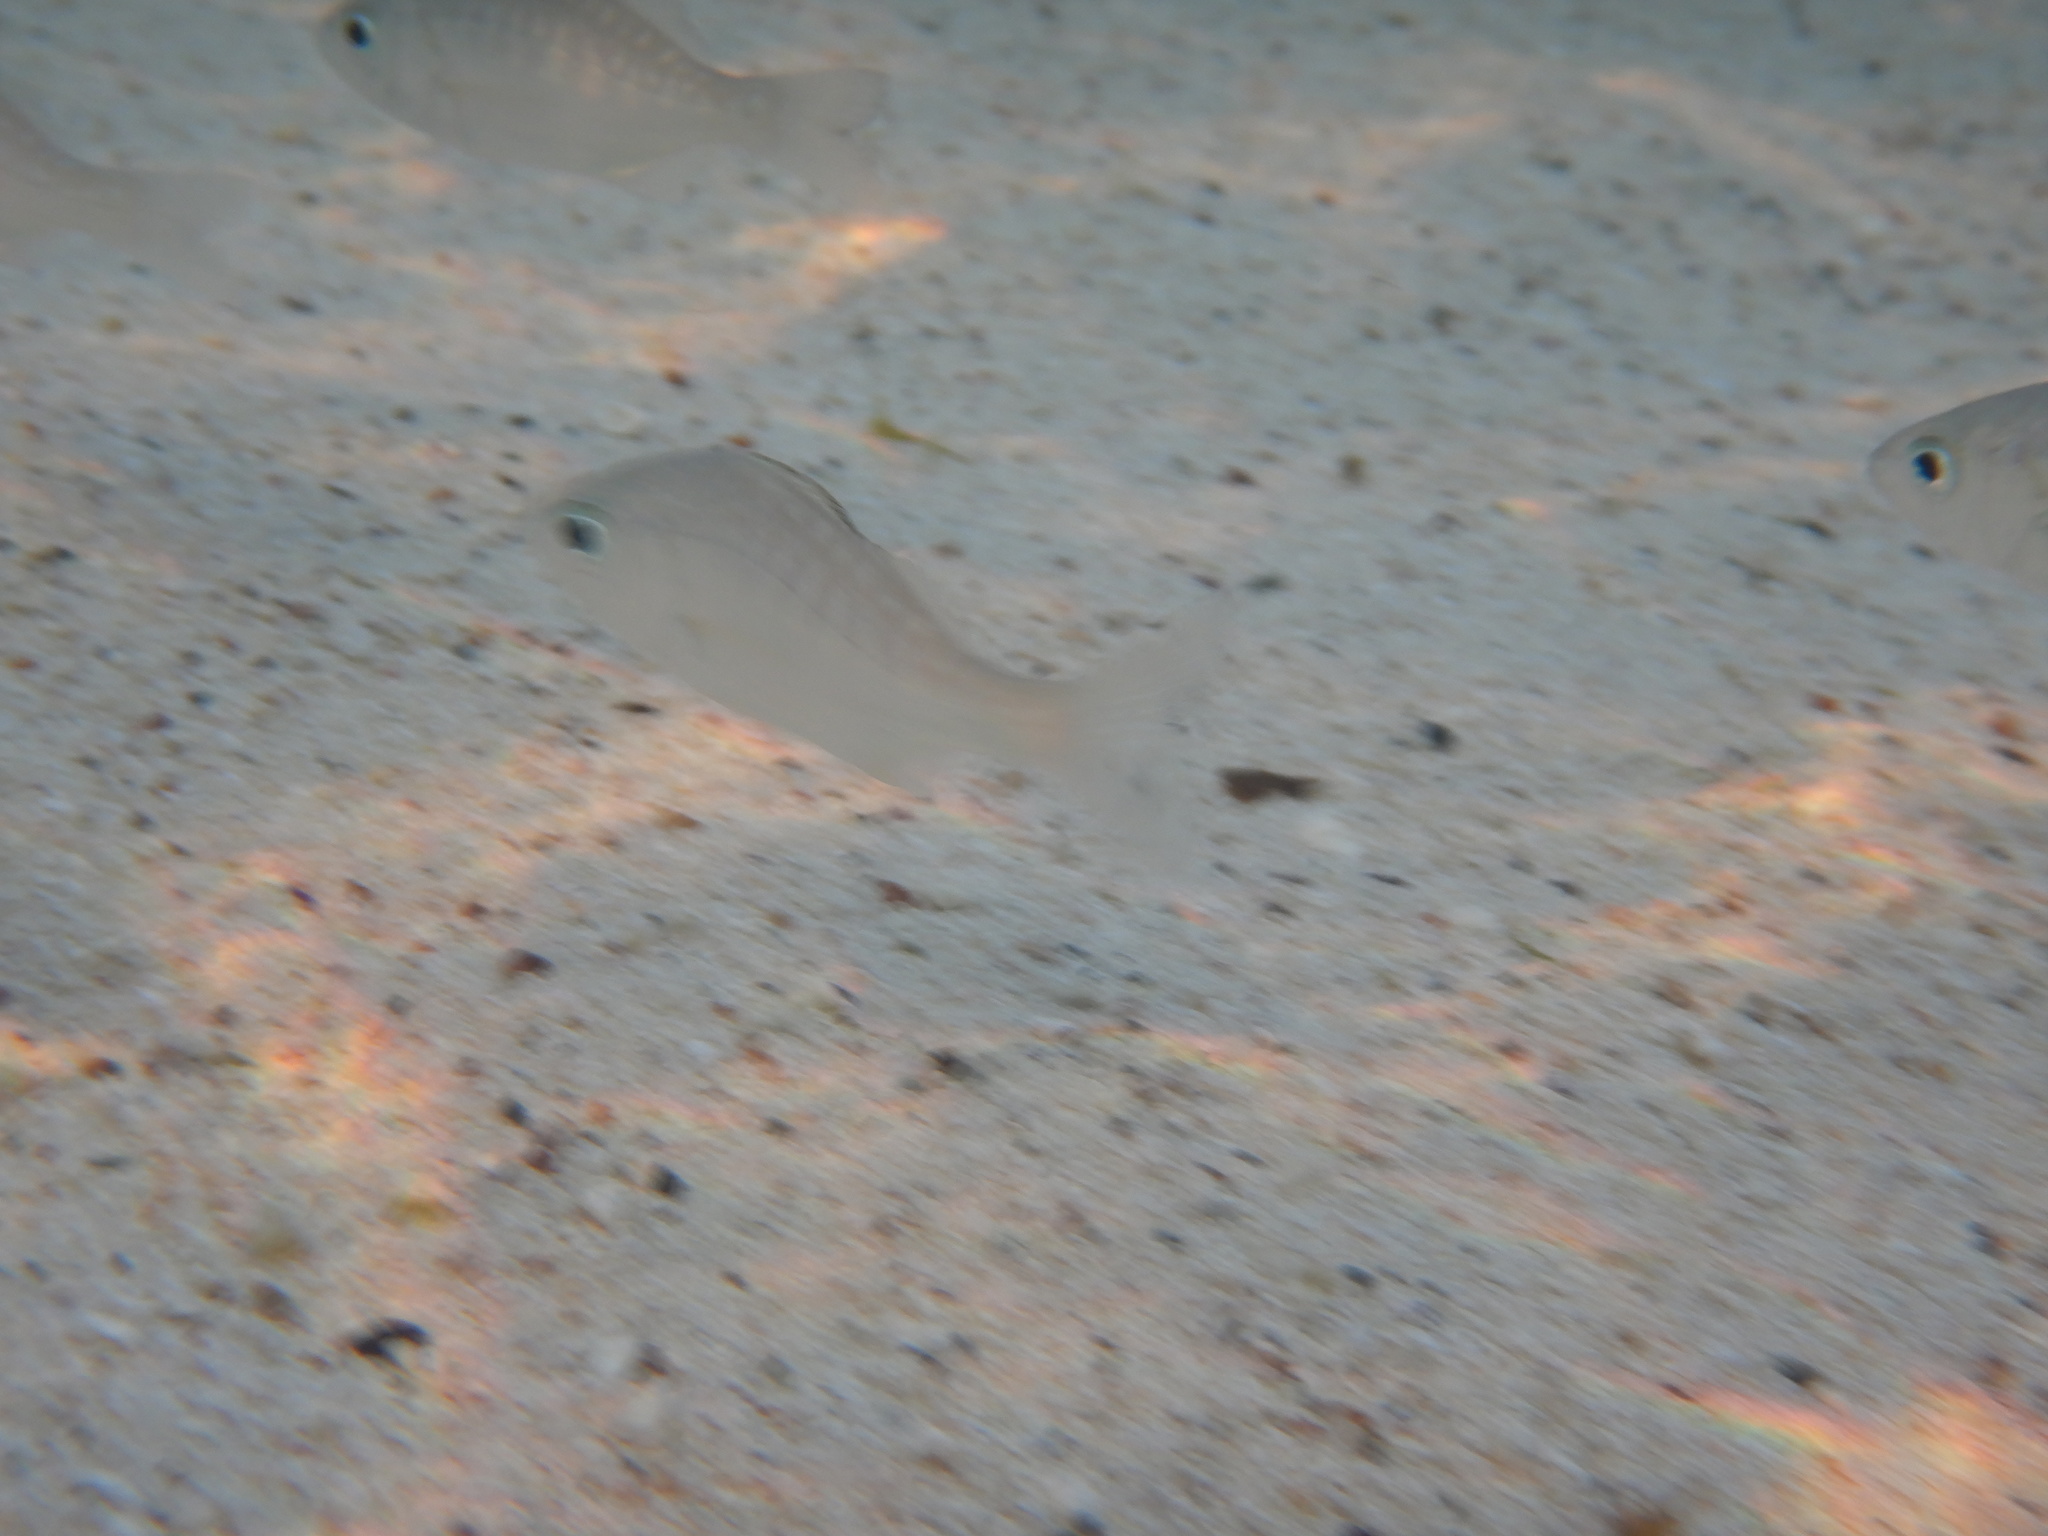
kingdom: Animalia
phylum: Chordata
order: Perciformes
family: Sparidae
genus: Lithognathus
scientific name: Lithognathus mormyrus
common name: Sand steenbras
